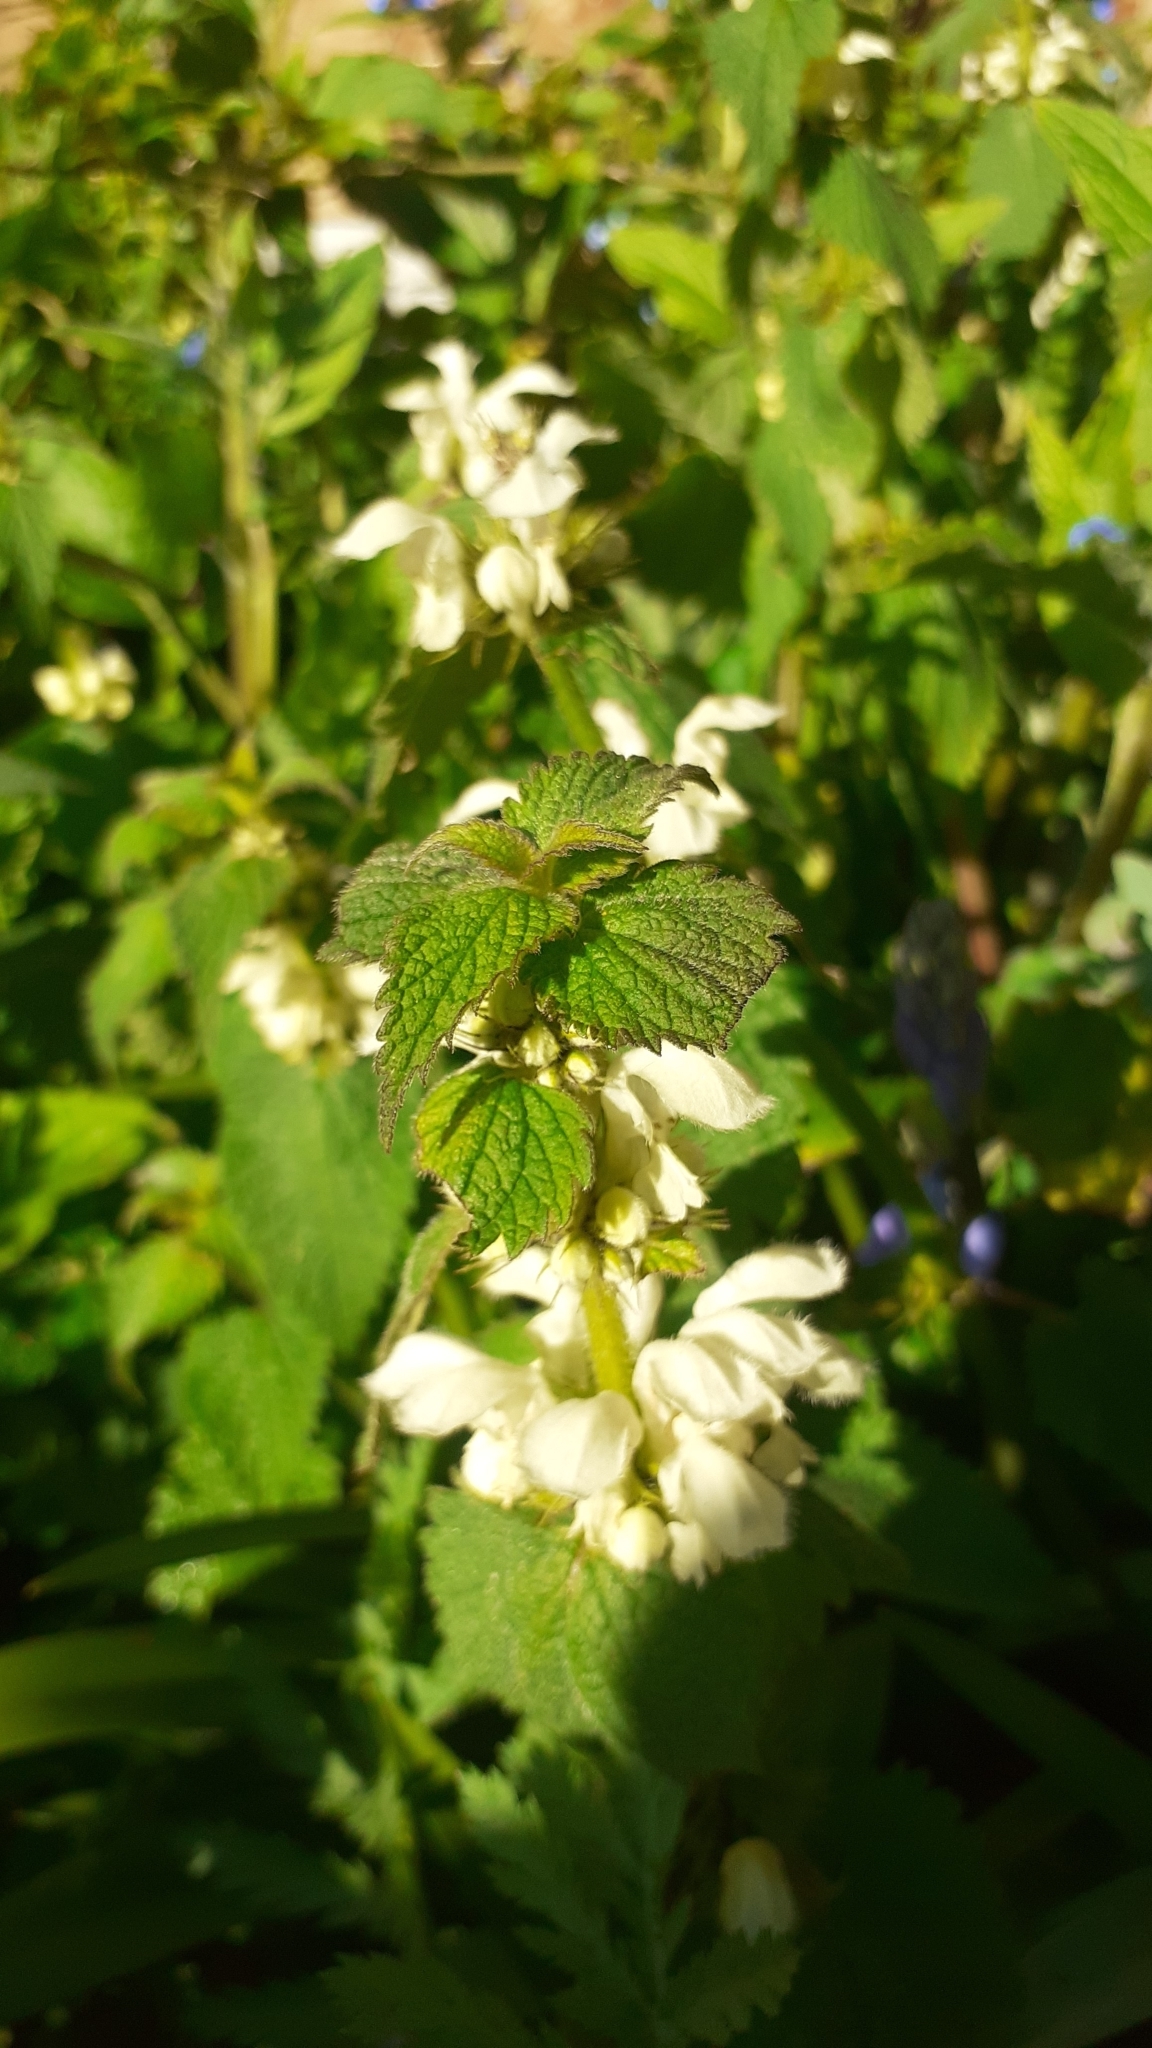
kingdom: Plantae
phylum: Tracheophyta
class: Magnoliopsida
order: Lamiales
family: Lamiaceae
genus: Lamium
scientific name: Lamium album
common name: White dead-nettle
